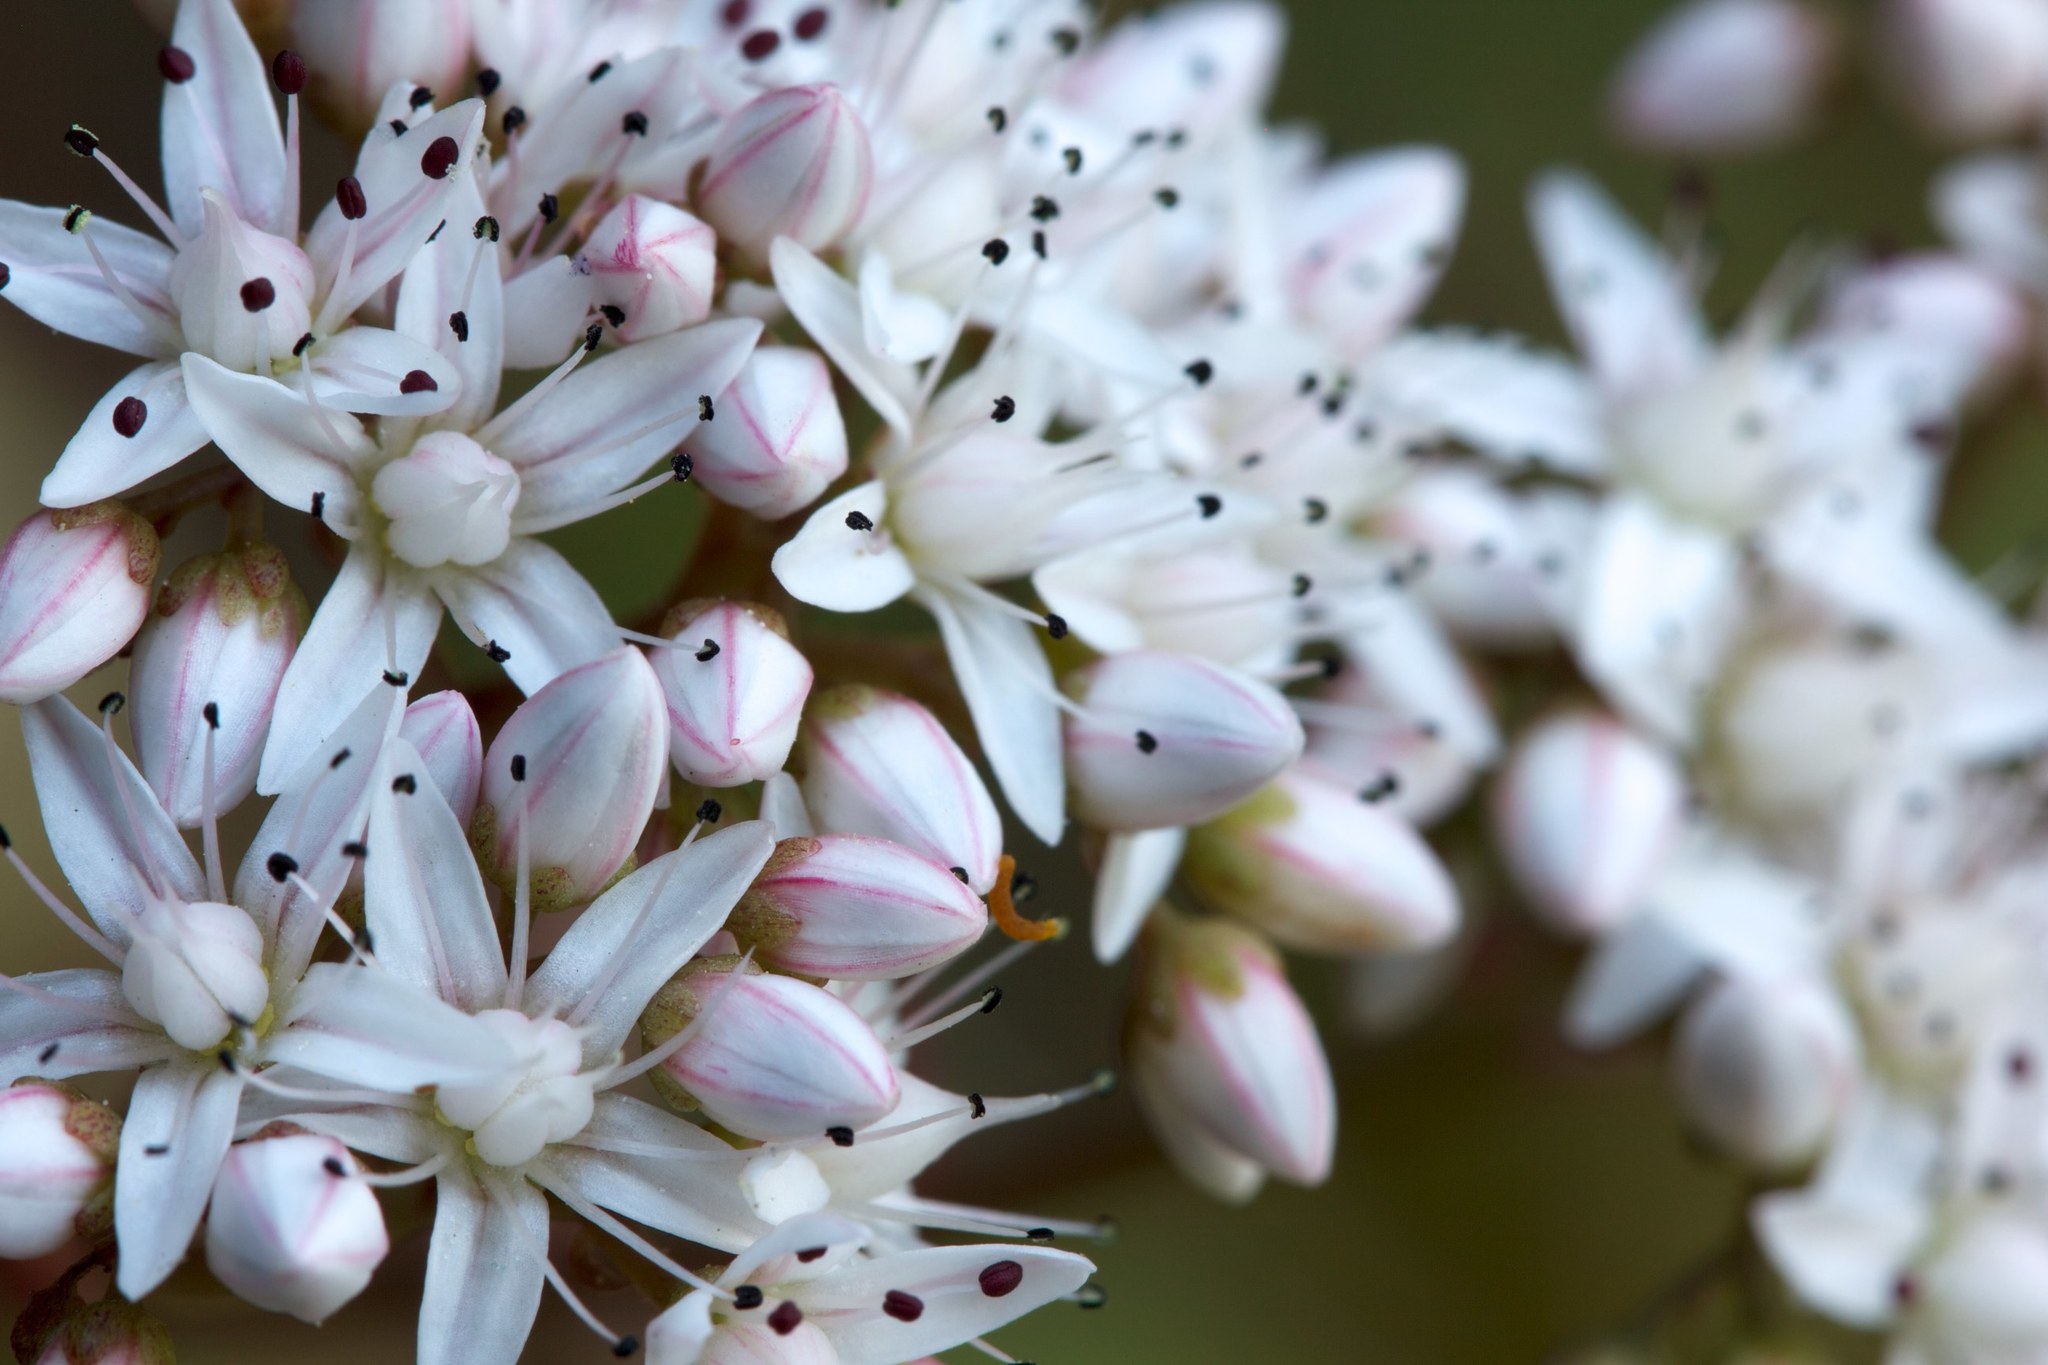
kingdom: Plantae
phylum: Tracheophyta
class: Magnoliopsida
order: Saxifragales
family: Crassulaceae
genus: Sedum
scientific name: Sedum album
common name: White stonecrop
